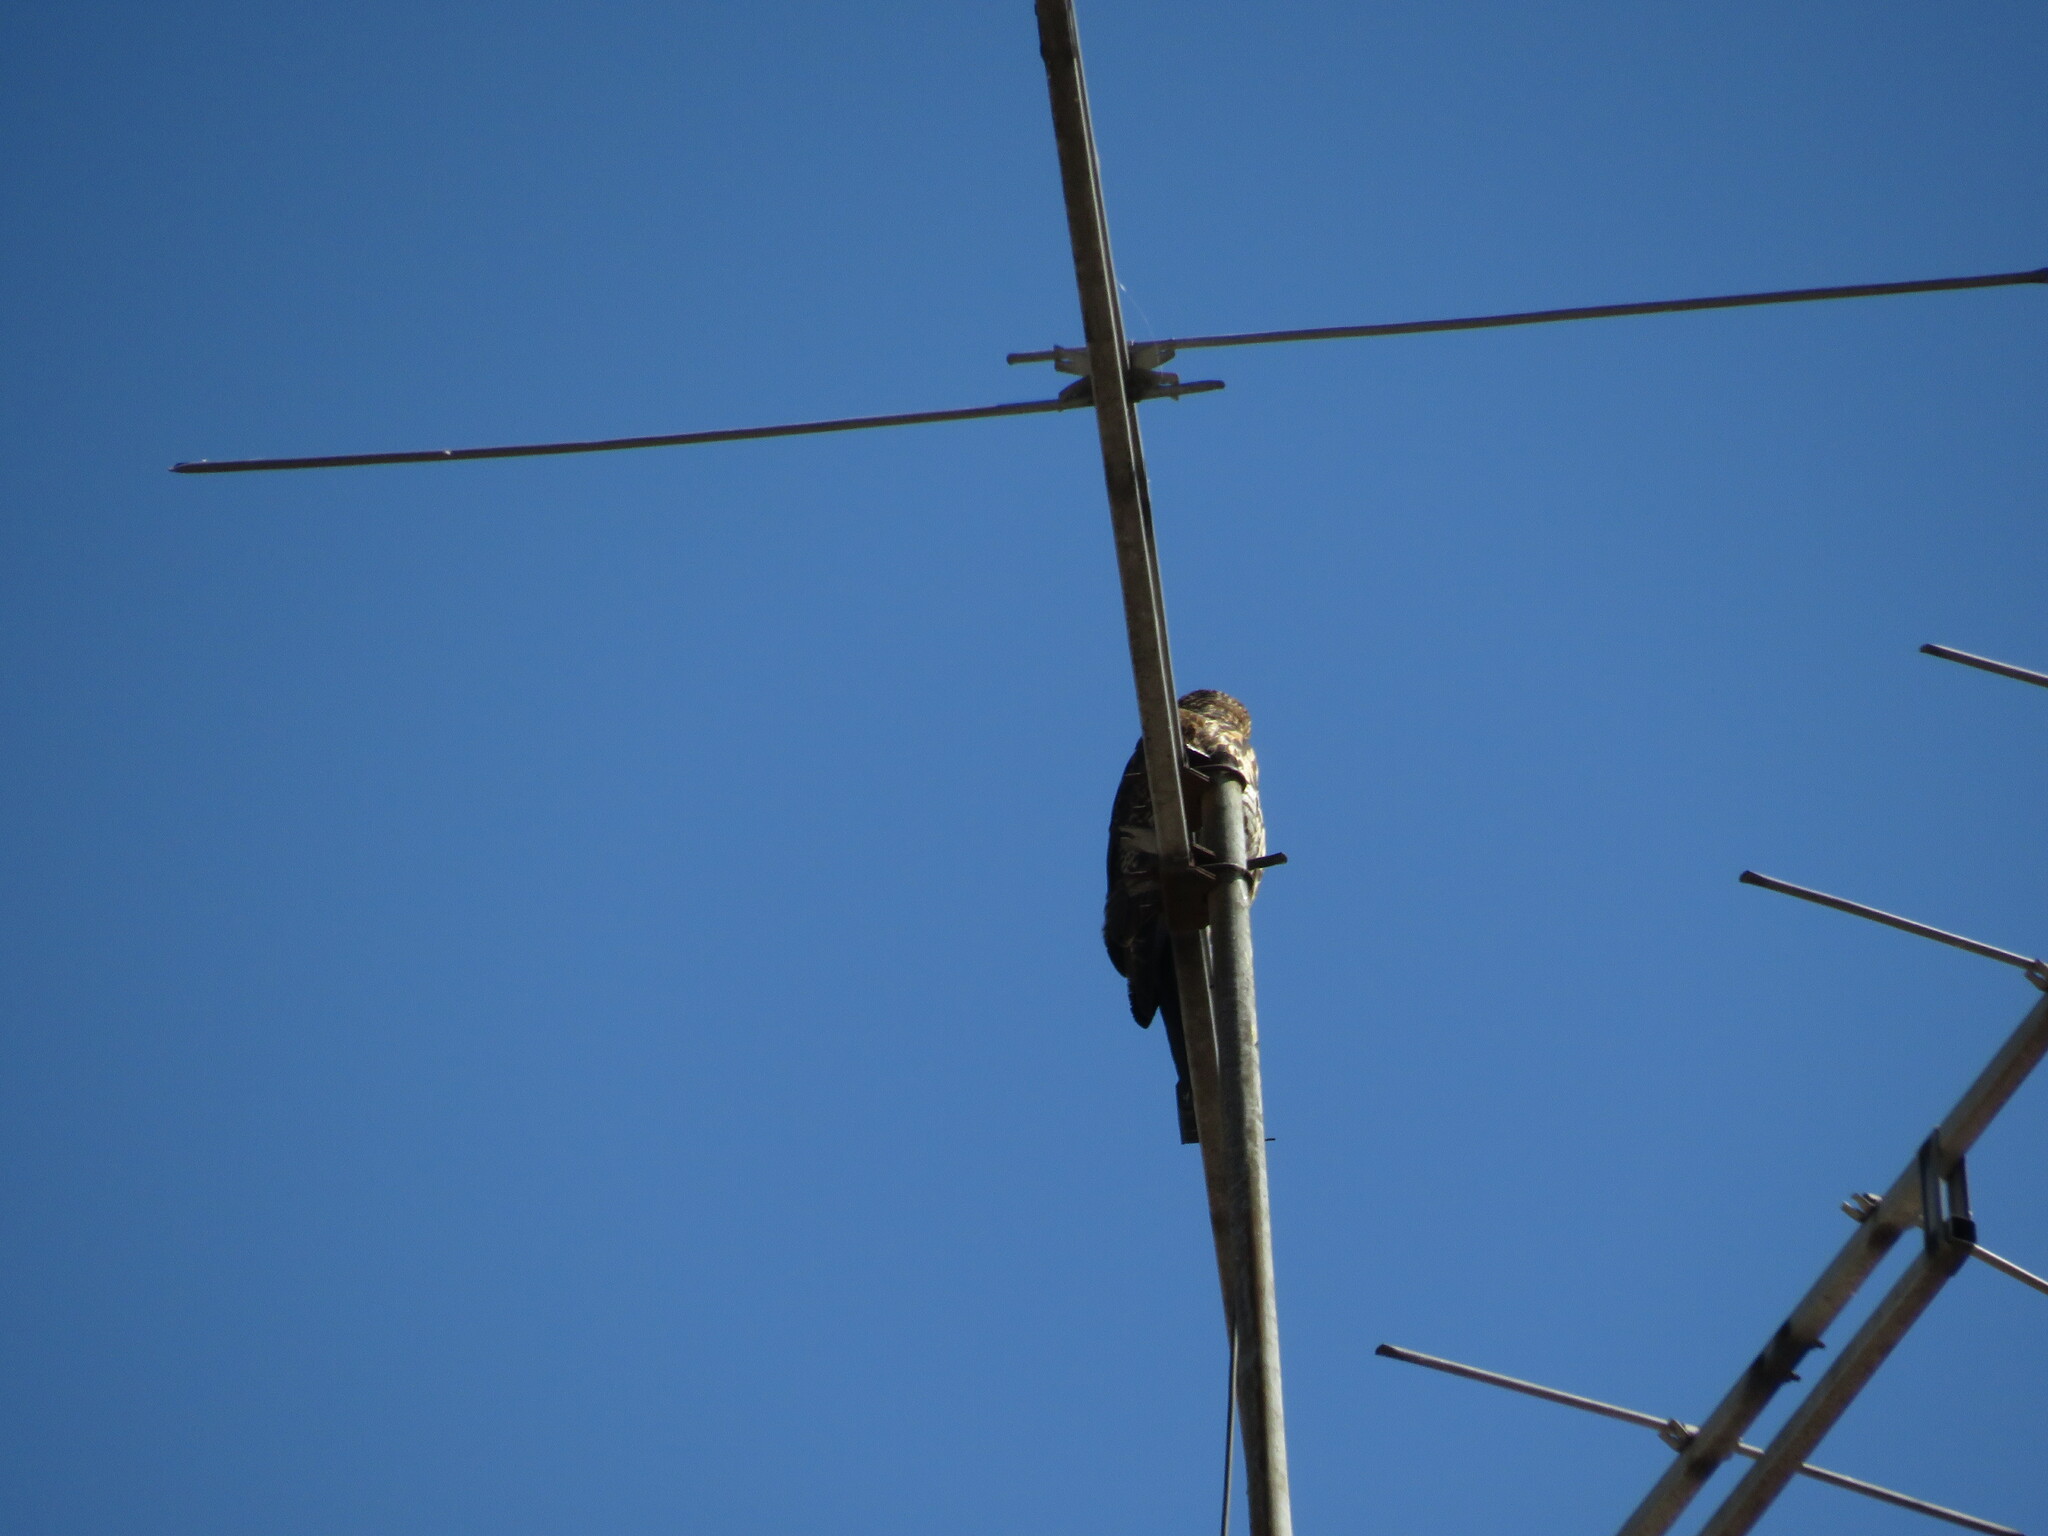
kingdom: Animalia
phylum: Chordata
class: Aves
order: Accipitriformes
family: Accipitridae
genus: Parabuteo
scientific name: Parabuteo unicinctus
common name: Harris's hawk
